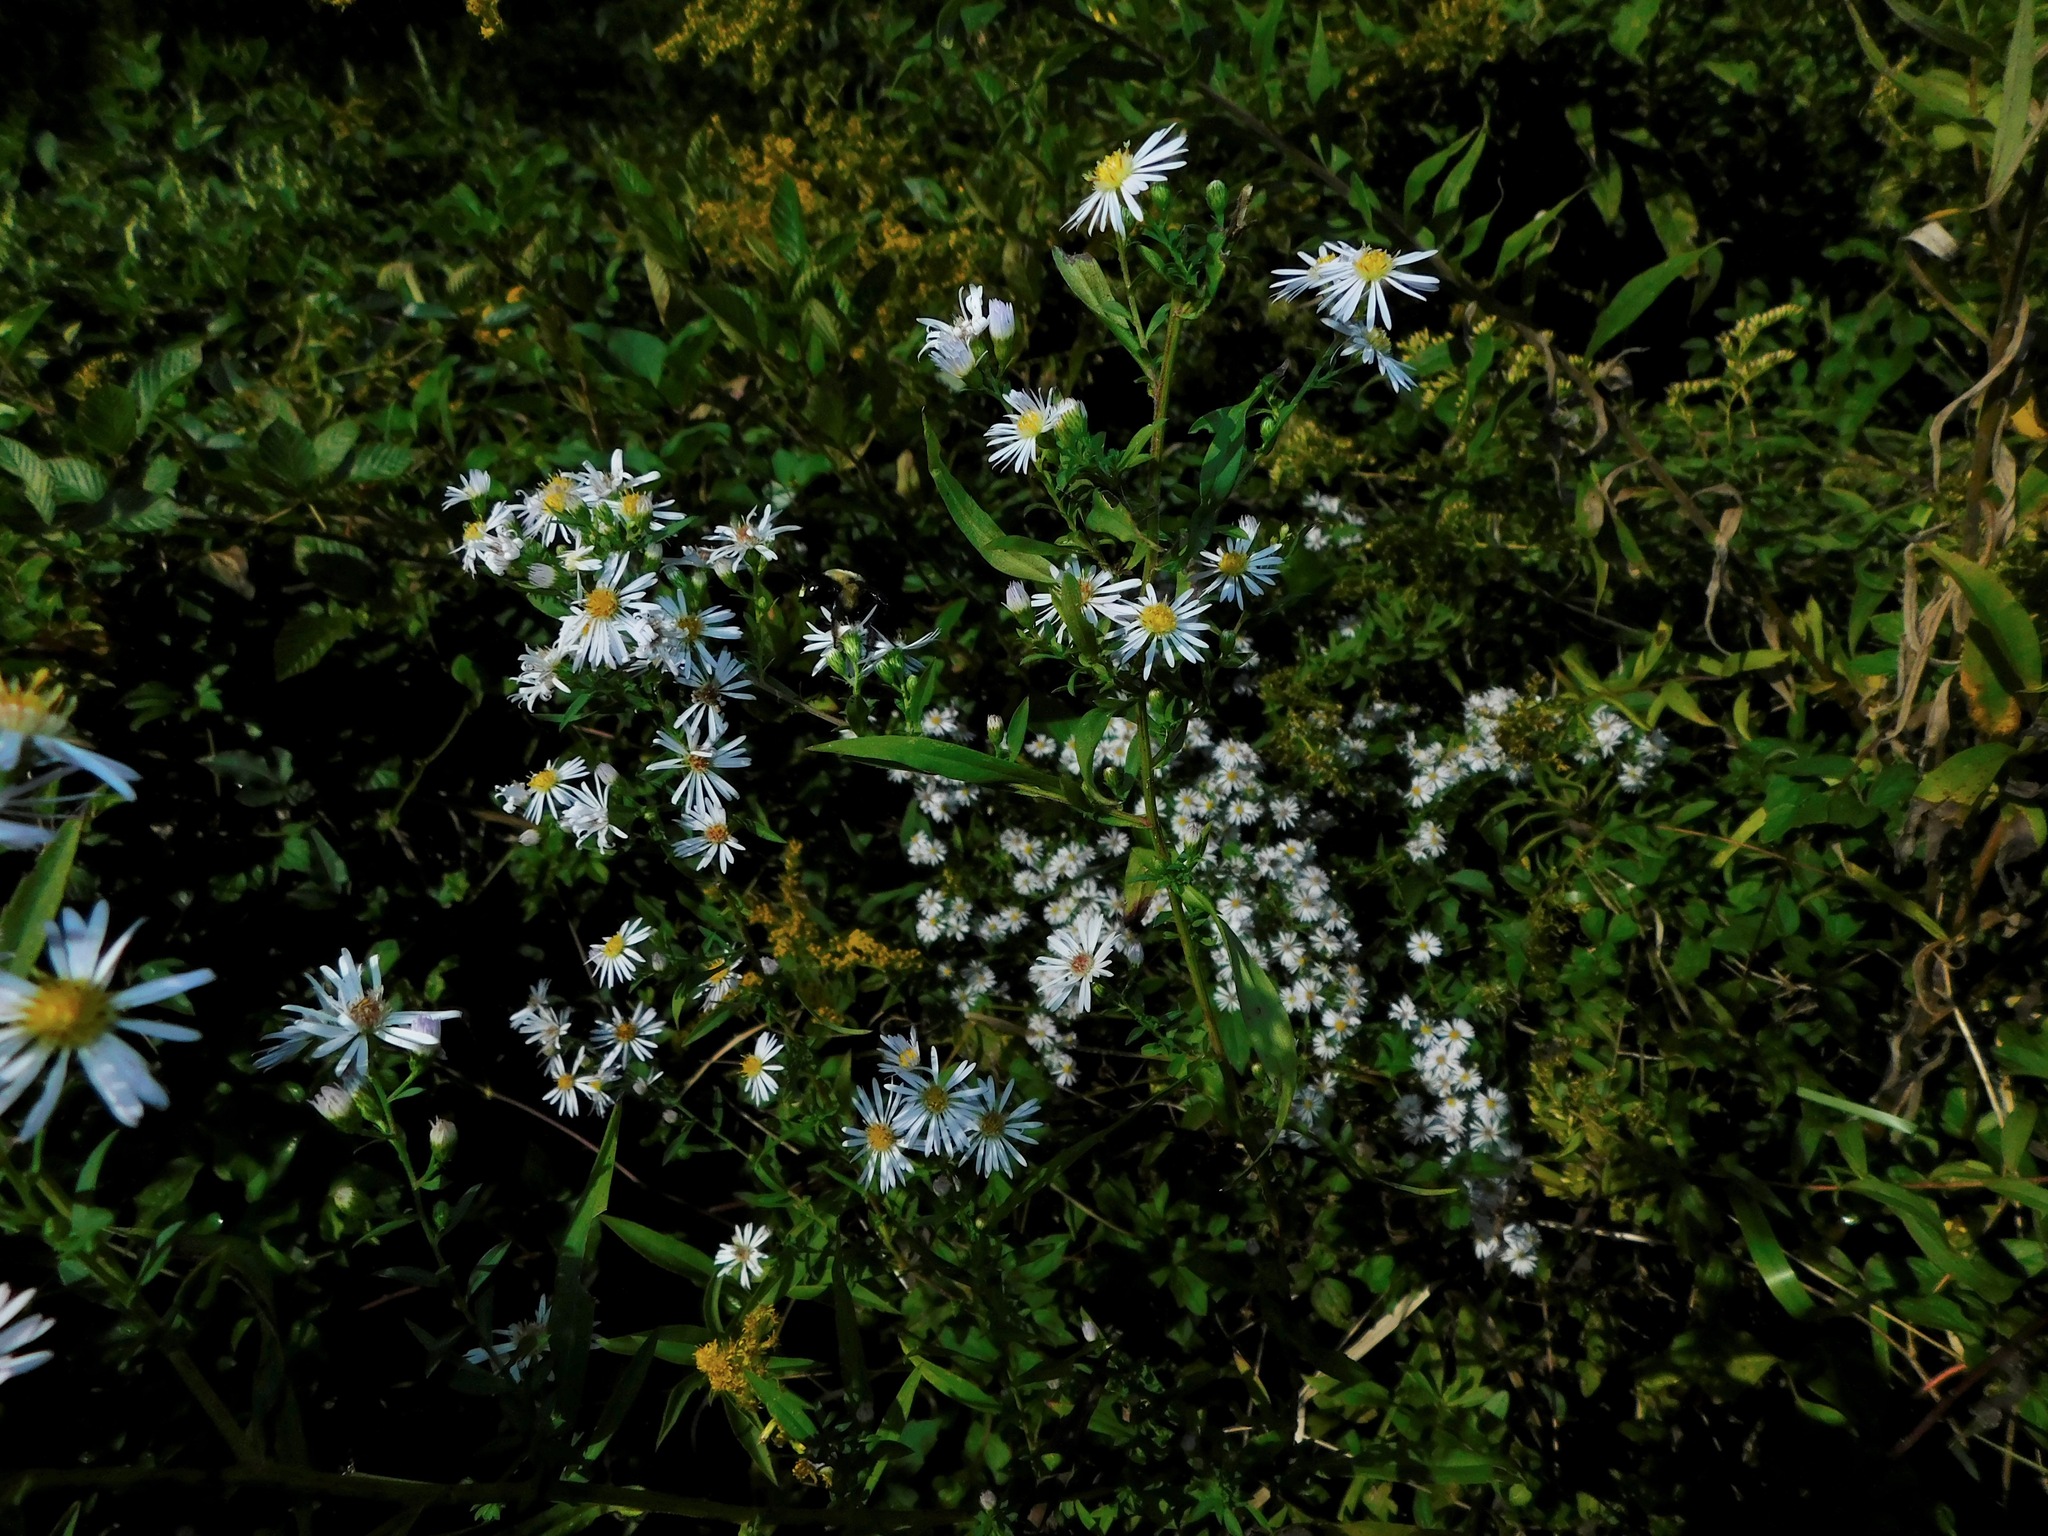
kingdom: Plantae
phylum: Tracheophyta
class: Magnoliopsida
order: Asterales
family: Asteraceae
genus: Symphyotrichum
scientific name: Symphyotrichum racemosum
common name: Small white aster
